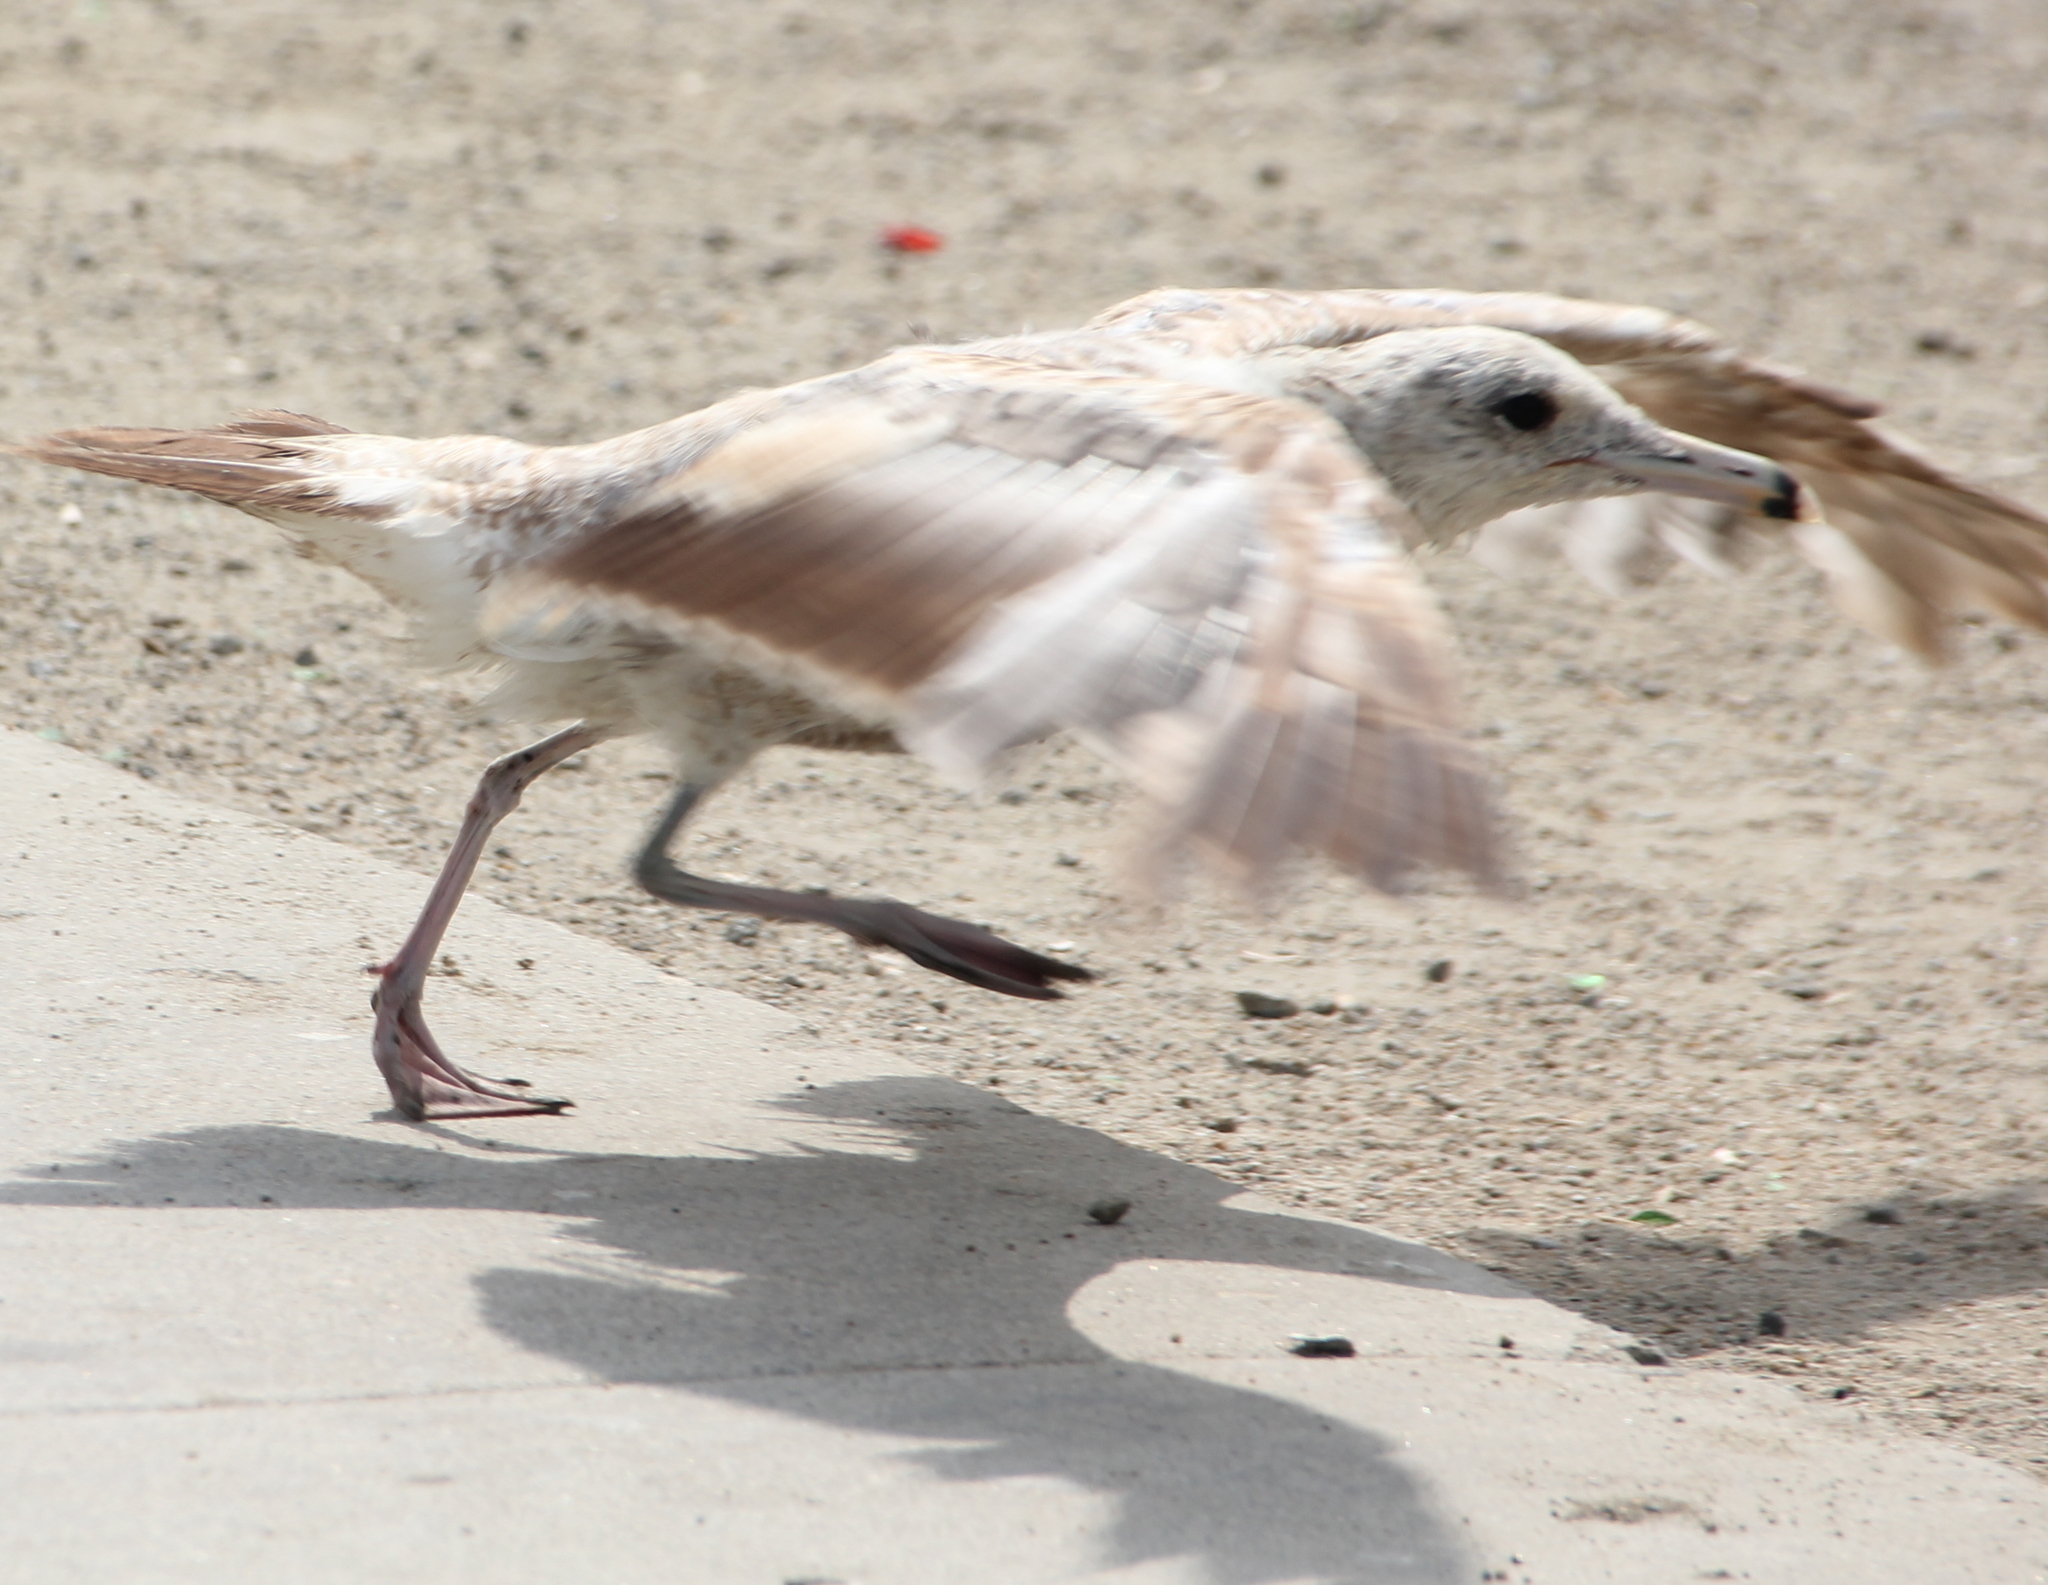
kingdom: Animalia
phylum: Chordata
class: Aves
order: Charadriiformes
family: Laridae
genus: Larus
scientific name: Larus californicus
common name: California gull
